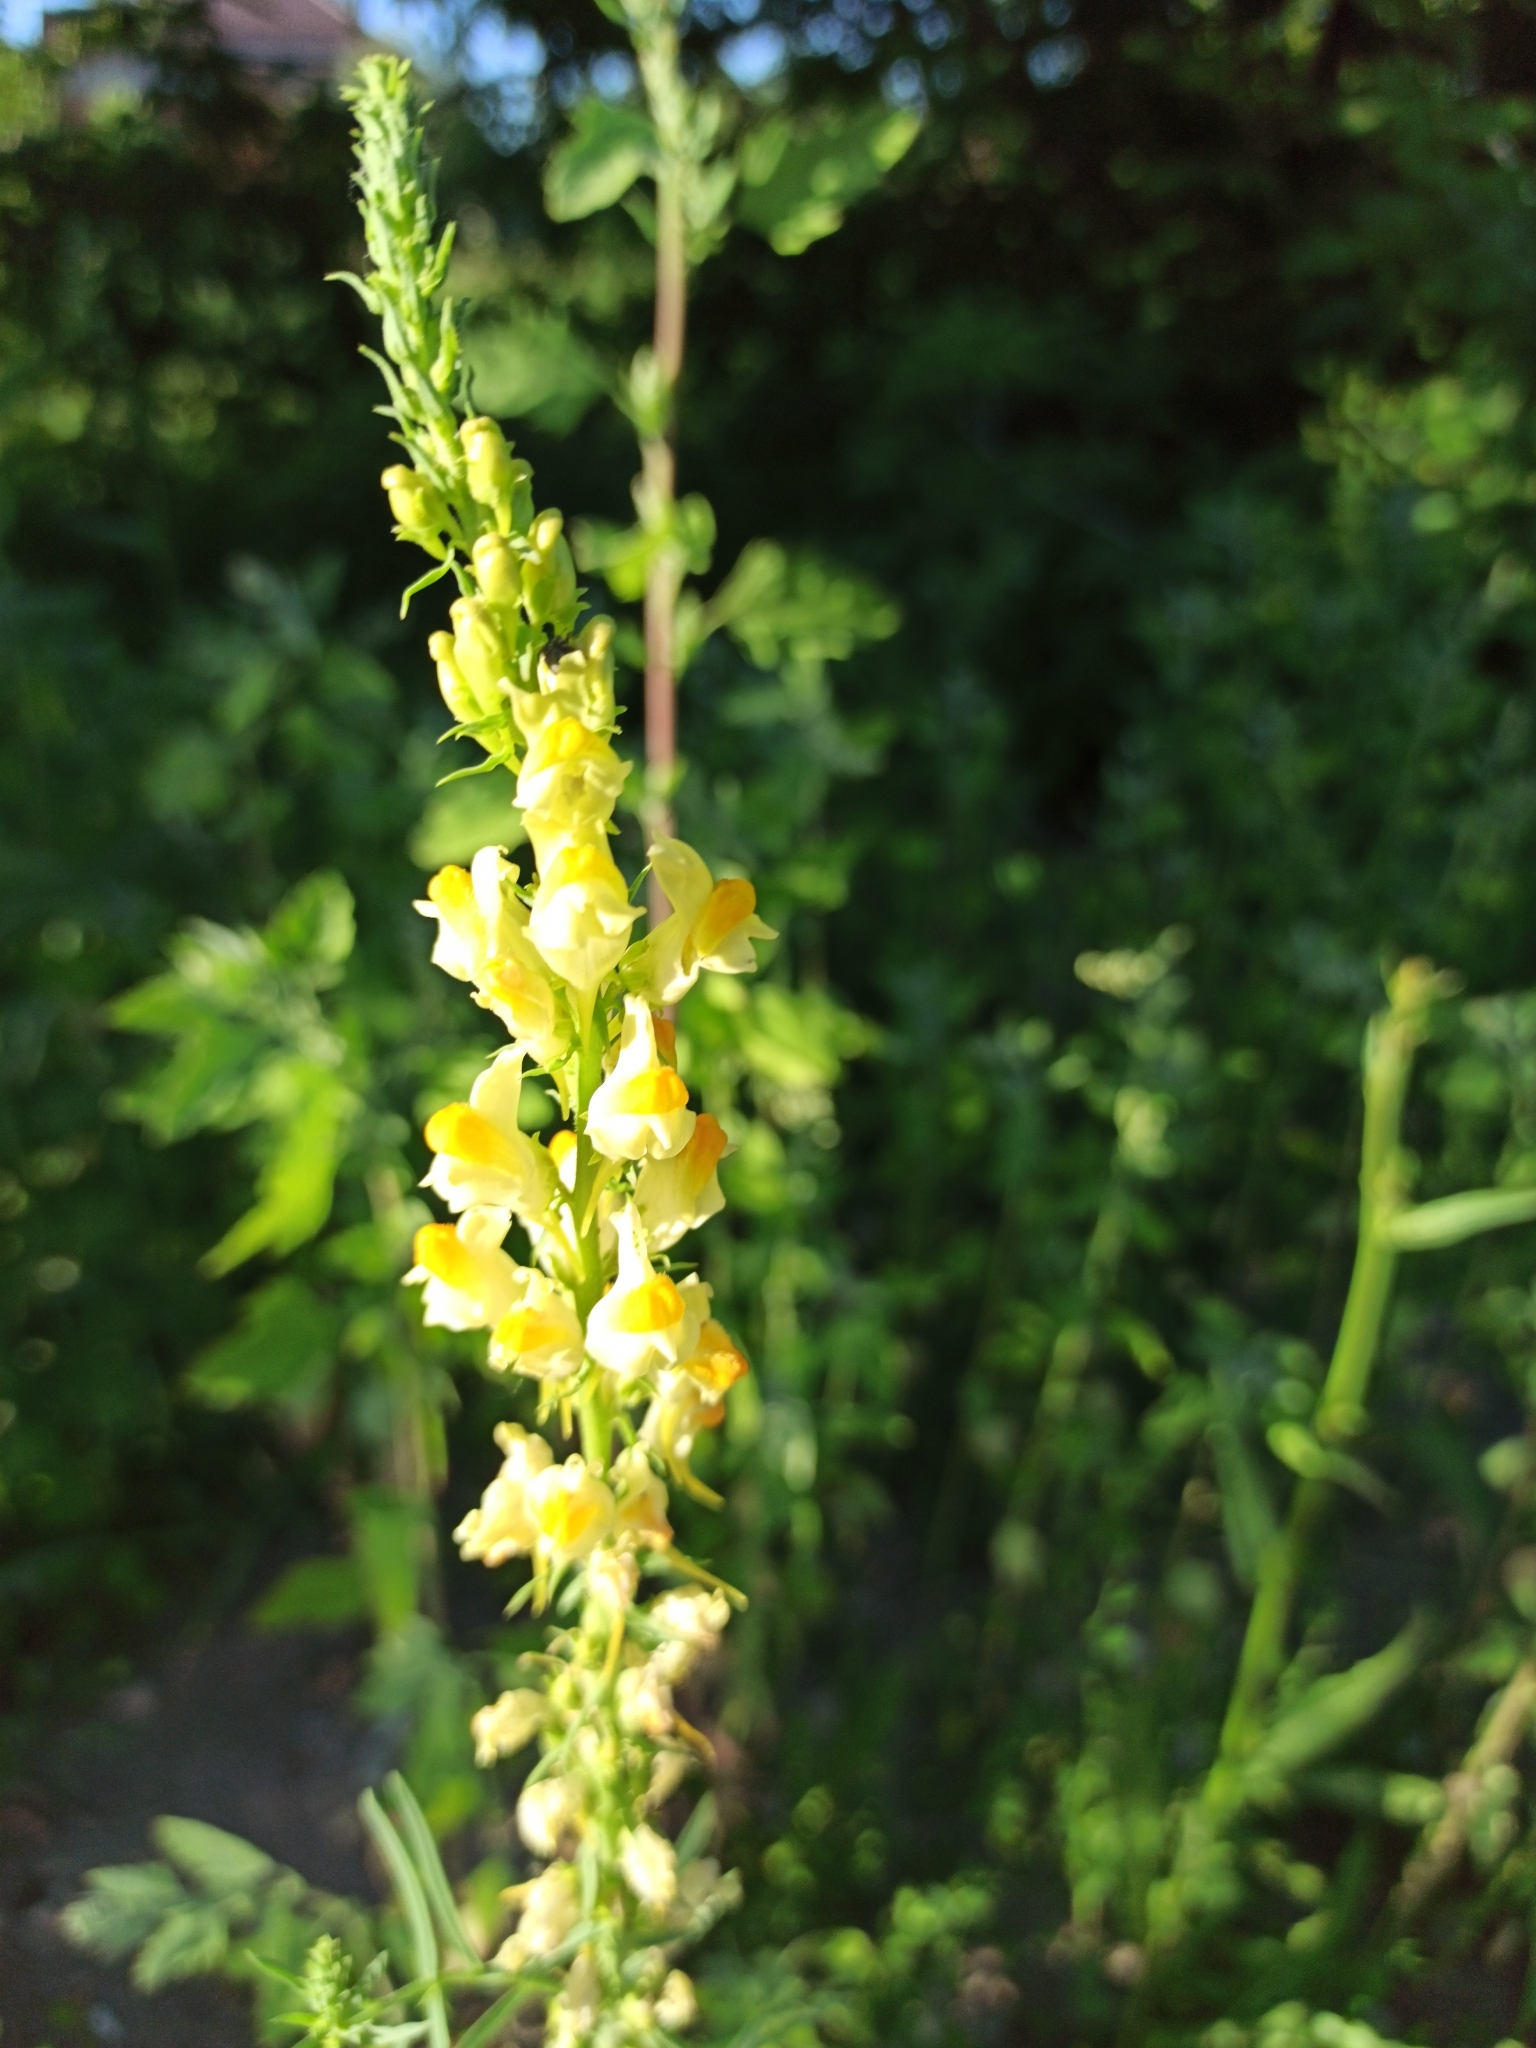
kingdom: Plantae
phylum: Tracheophyta
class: Magnoliopsida
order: Lamiales
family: Plantaginaceae
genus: Linaria
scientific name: Linaria vulgaris
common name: Butter and eggs
